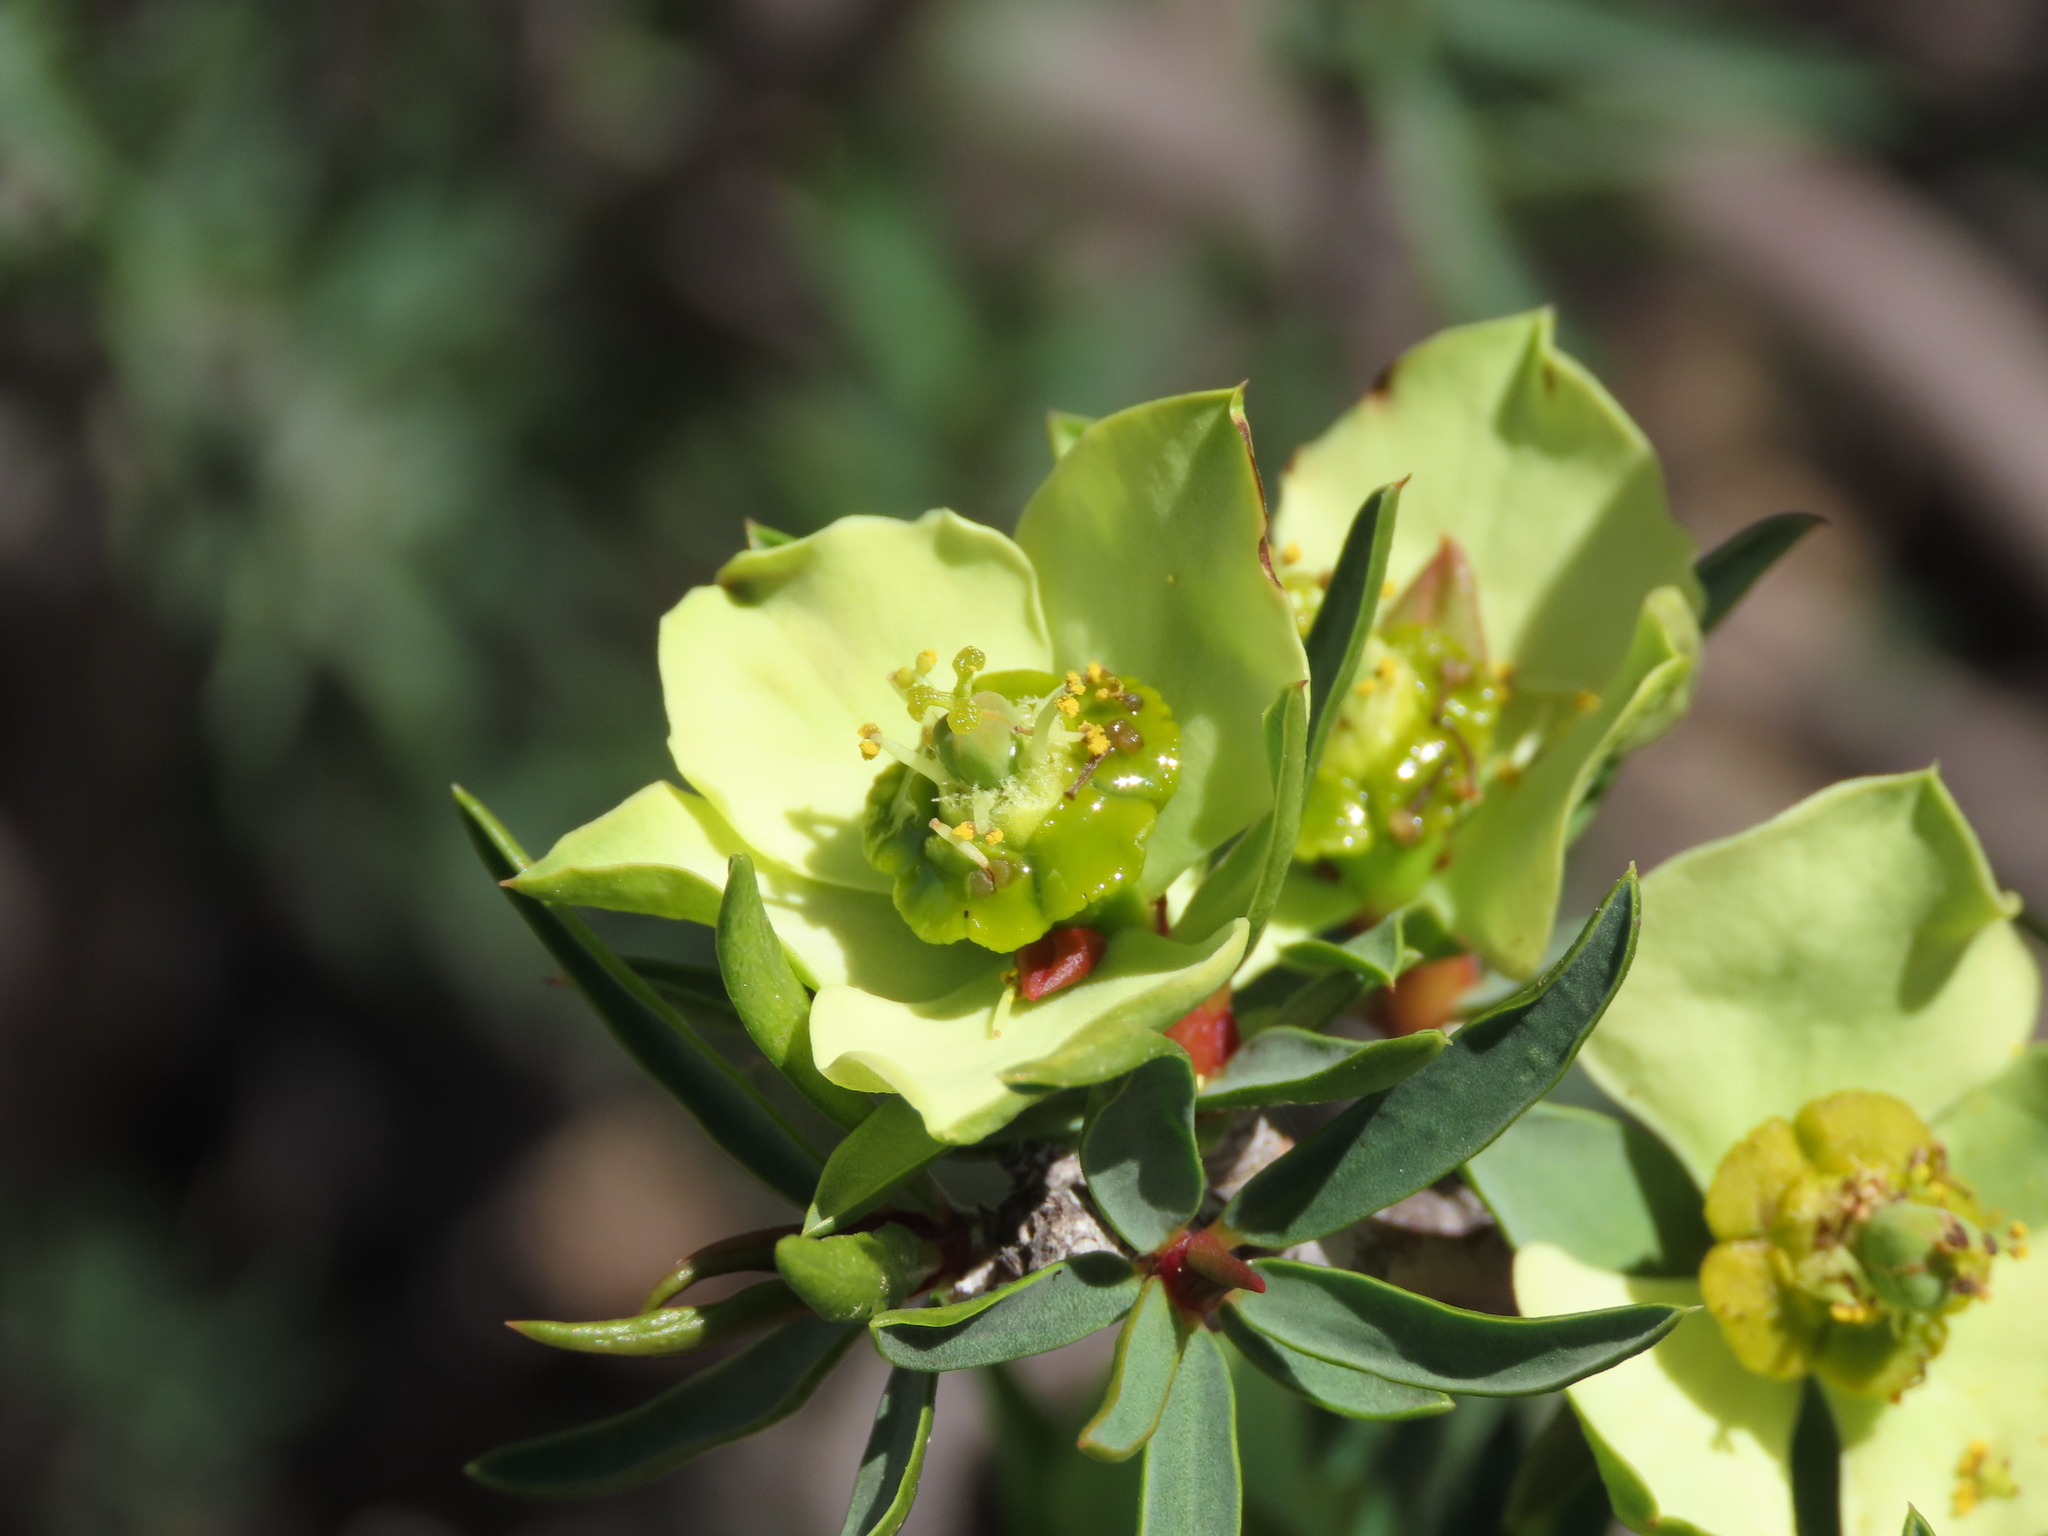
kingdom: Plantae
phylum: Tracheophyta
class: Magnoliopsida
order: Malpighiales
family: Euphorbiaceae
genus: Euphorbia
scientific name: Euphorbia lactiflua
